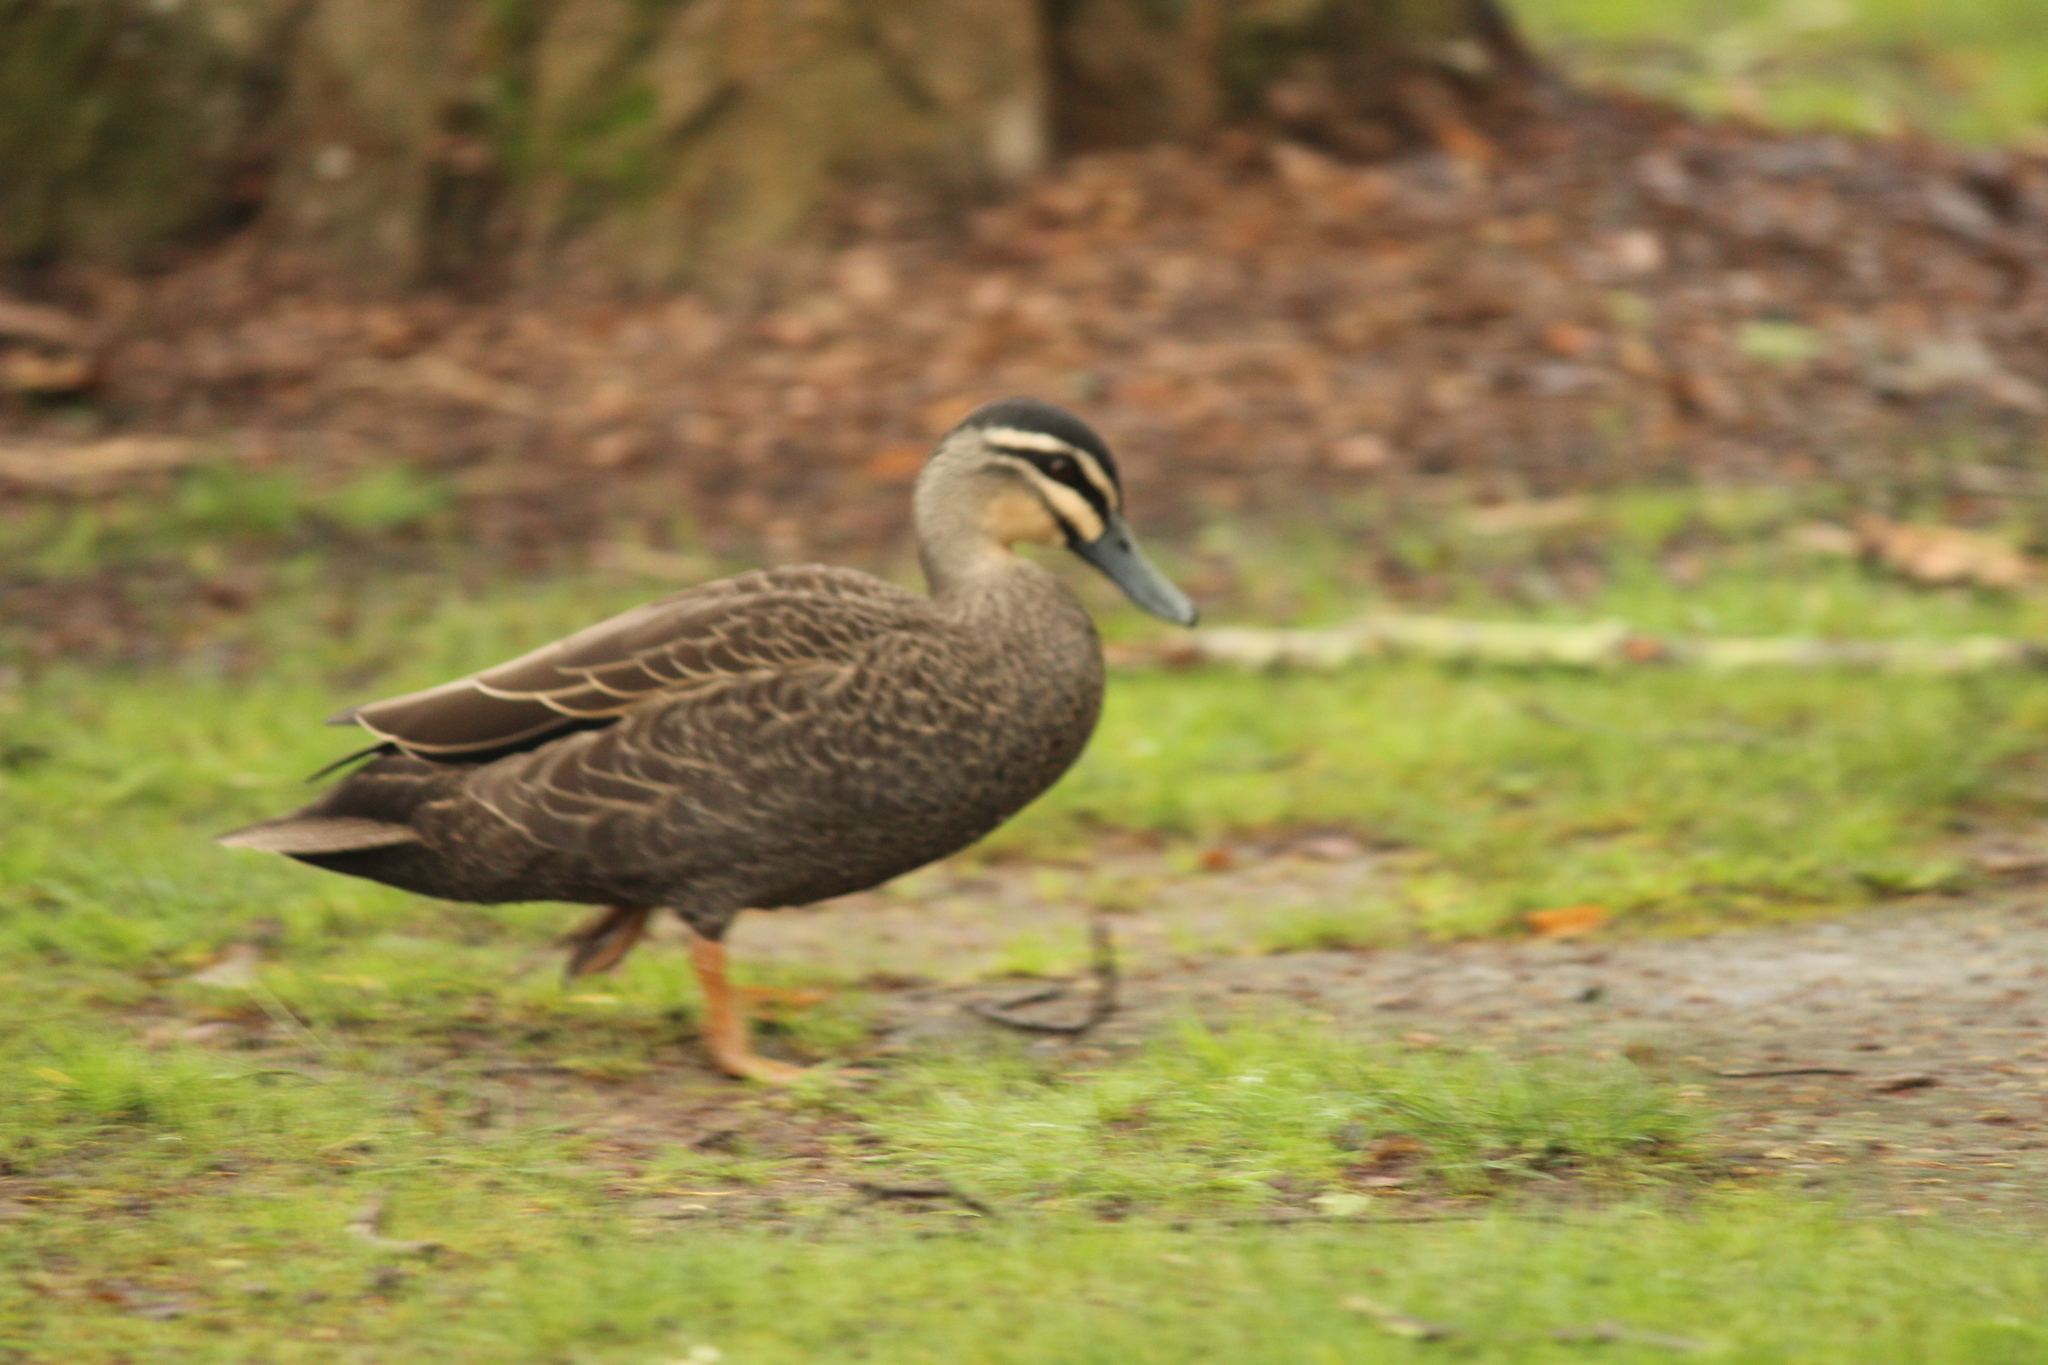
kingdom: Animalia
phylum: Chordata
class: Aves
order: Anseriformes
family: Anatidae
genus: Anas
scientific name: Anas
